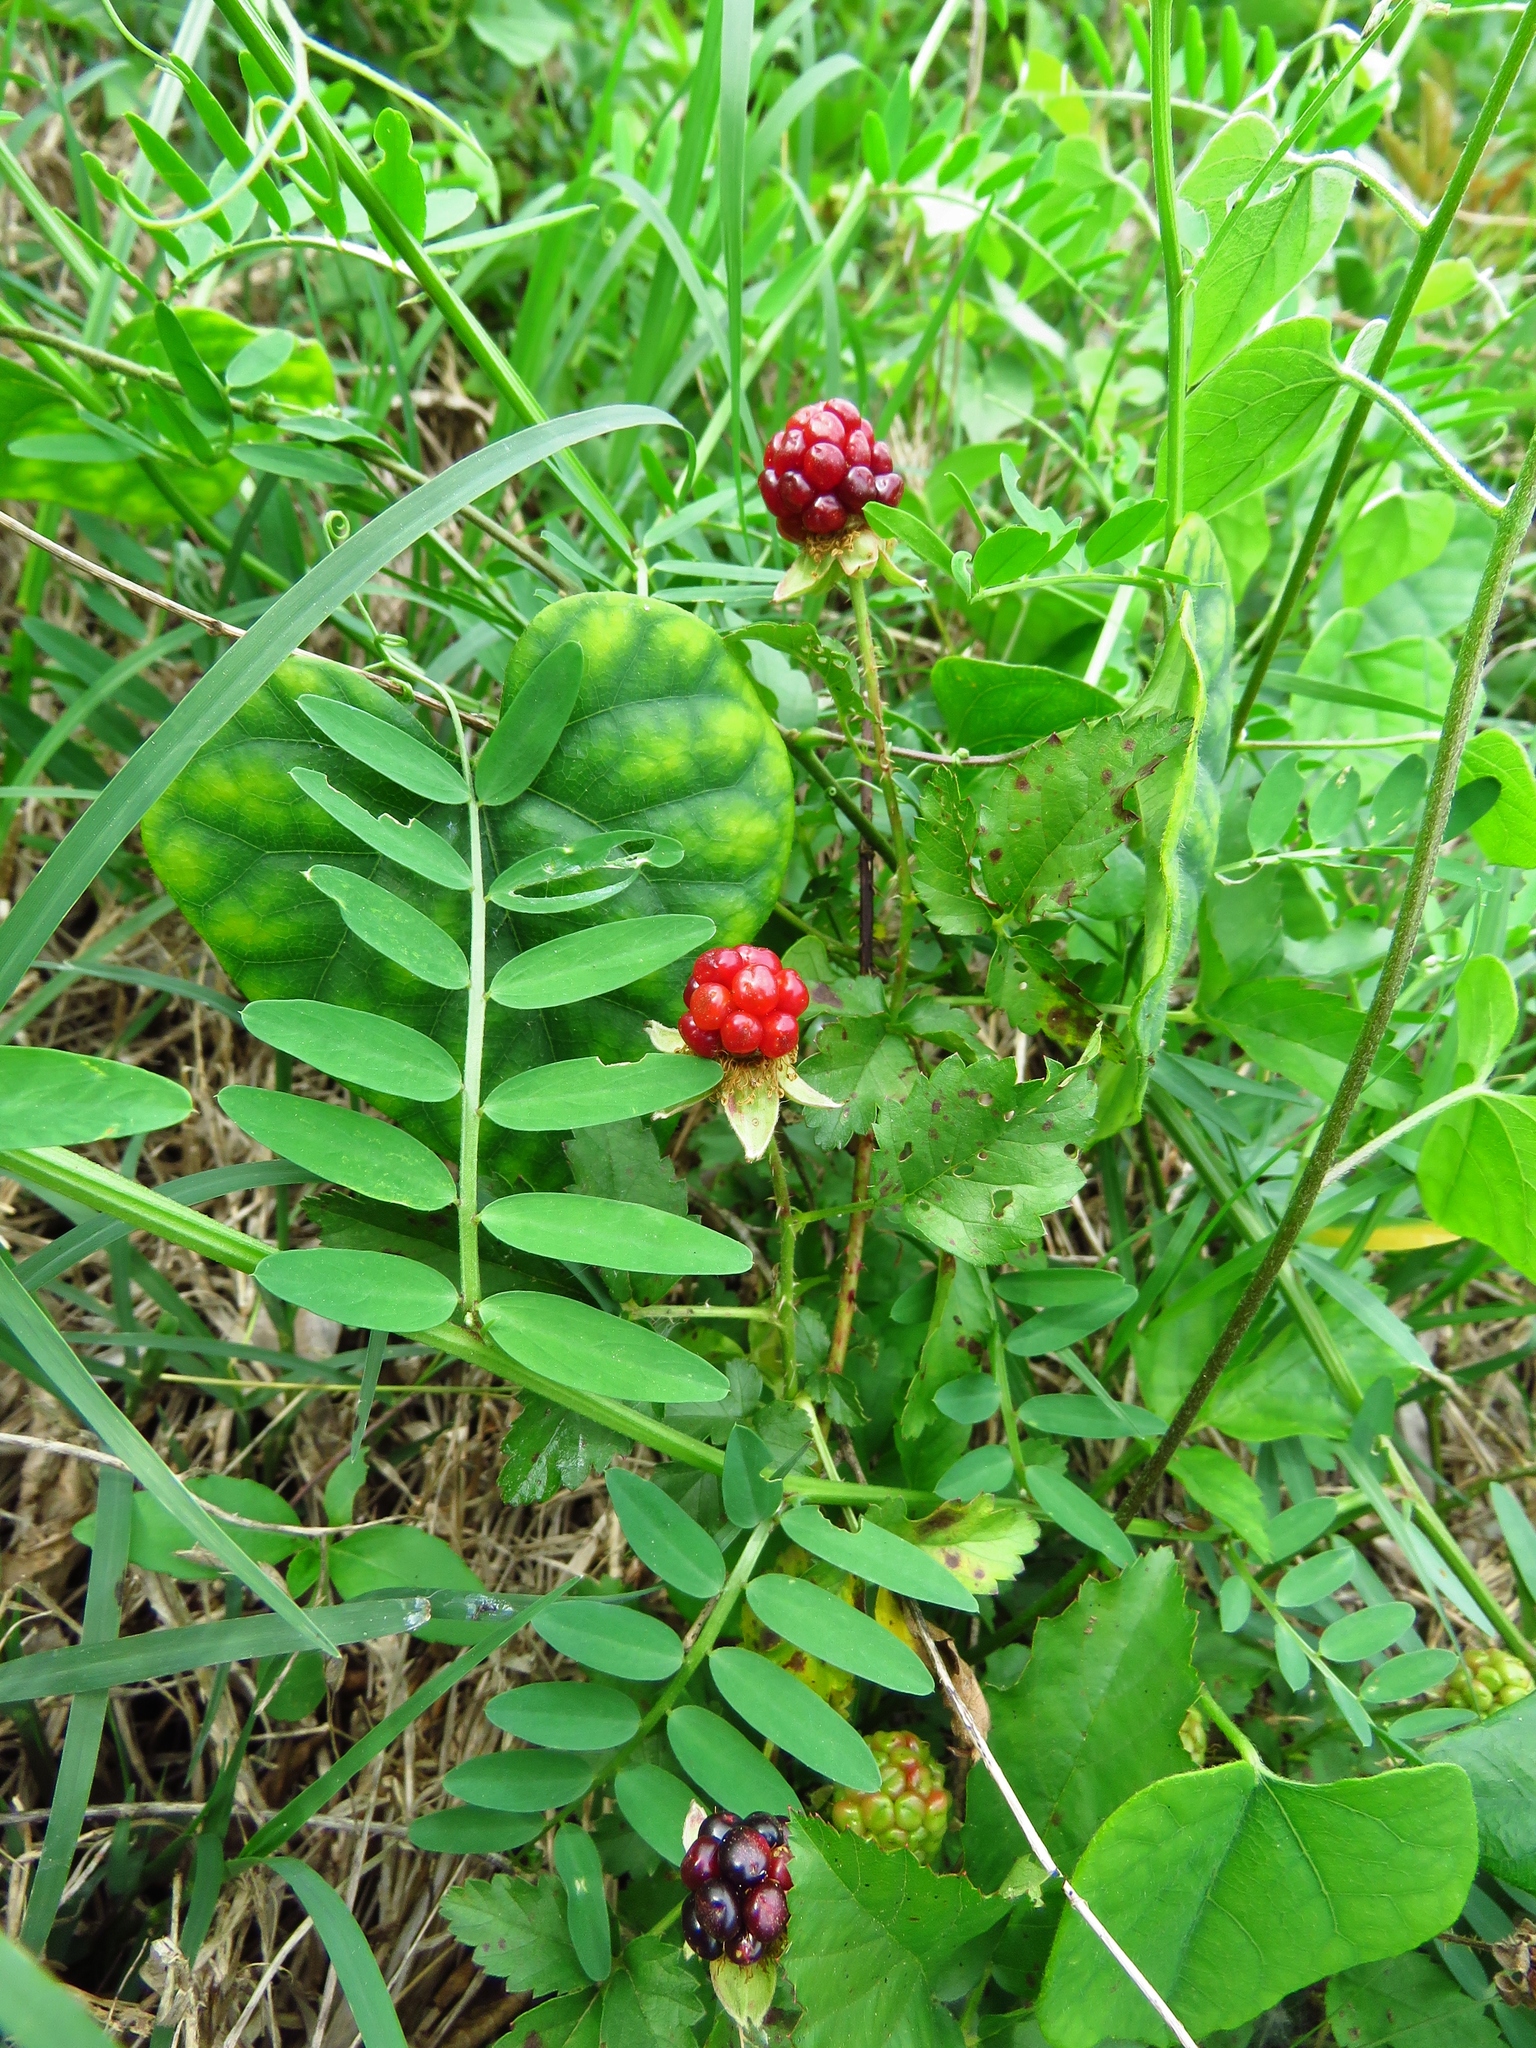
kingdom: Plantae
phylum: Tracheophyta
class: Magnoliopsida
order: Rosales
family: Rosaceae
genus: Rubus
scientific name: Rubus trivialis
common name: Southern dewberry
